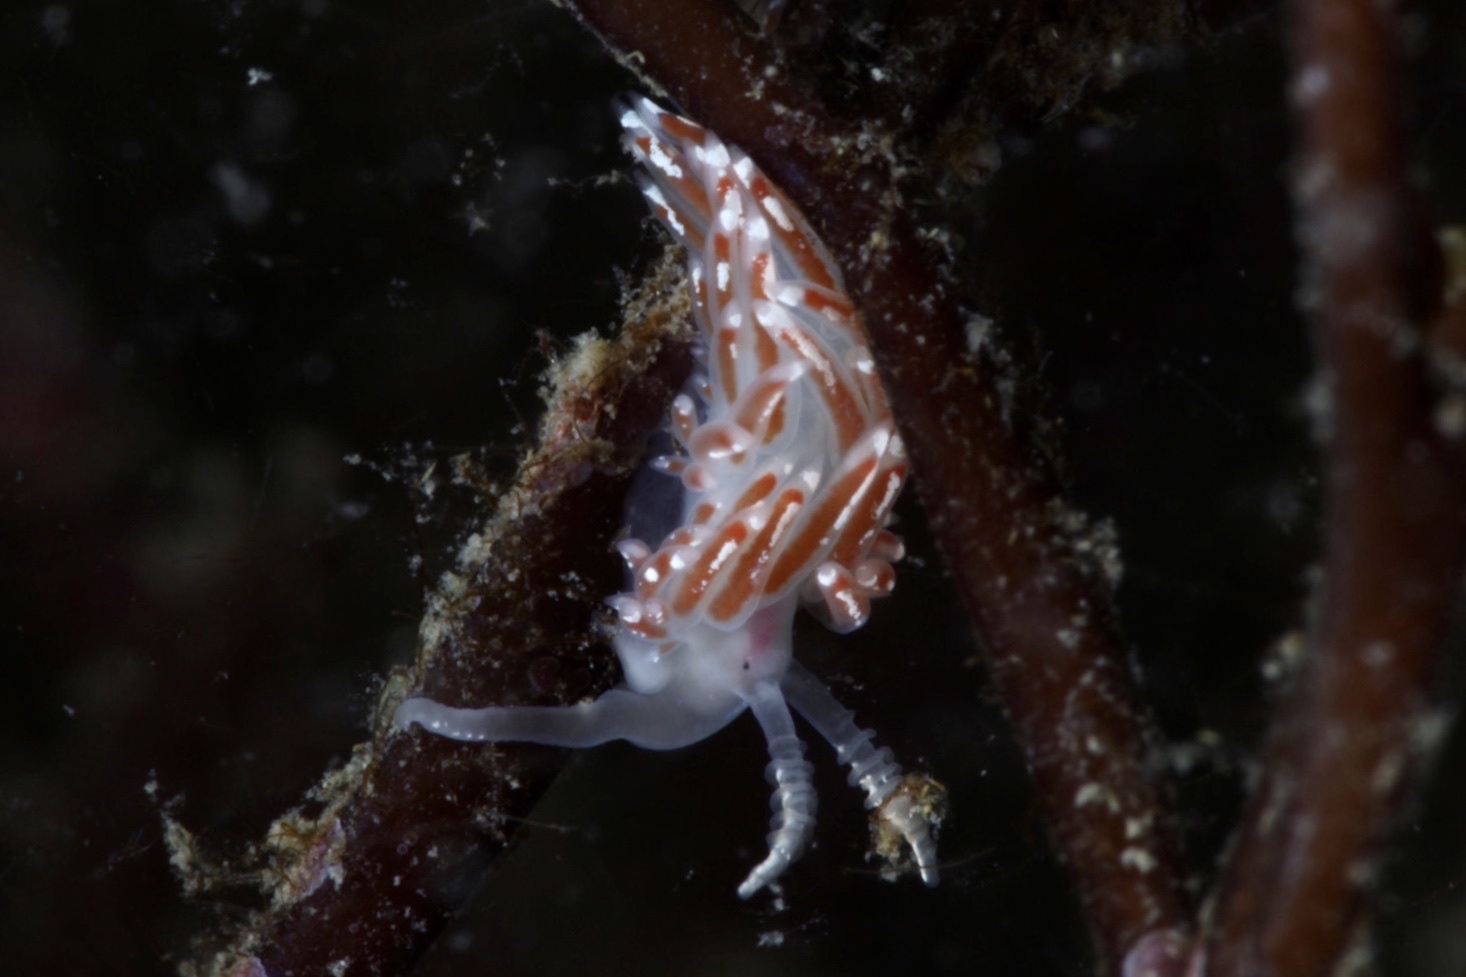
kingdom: Animalia
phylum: Mollusca
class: Gastropoda
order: Nudibranchia
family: Facelinidae
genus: Facelina
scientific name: Facelina auriculata
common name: Slender facelina
